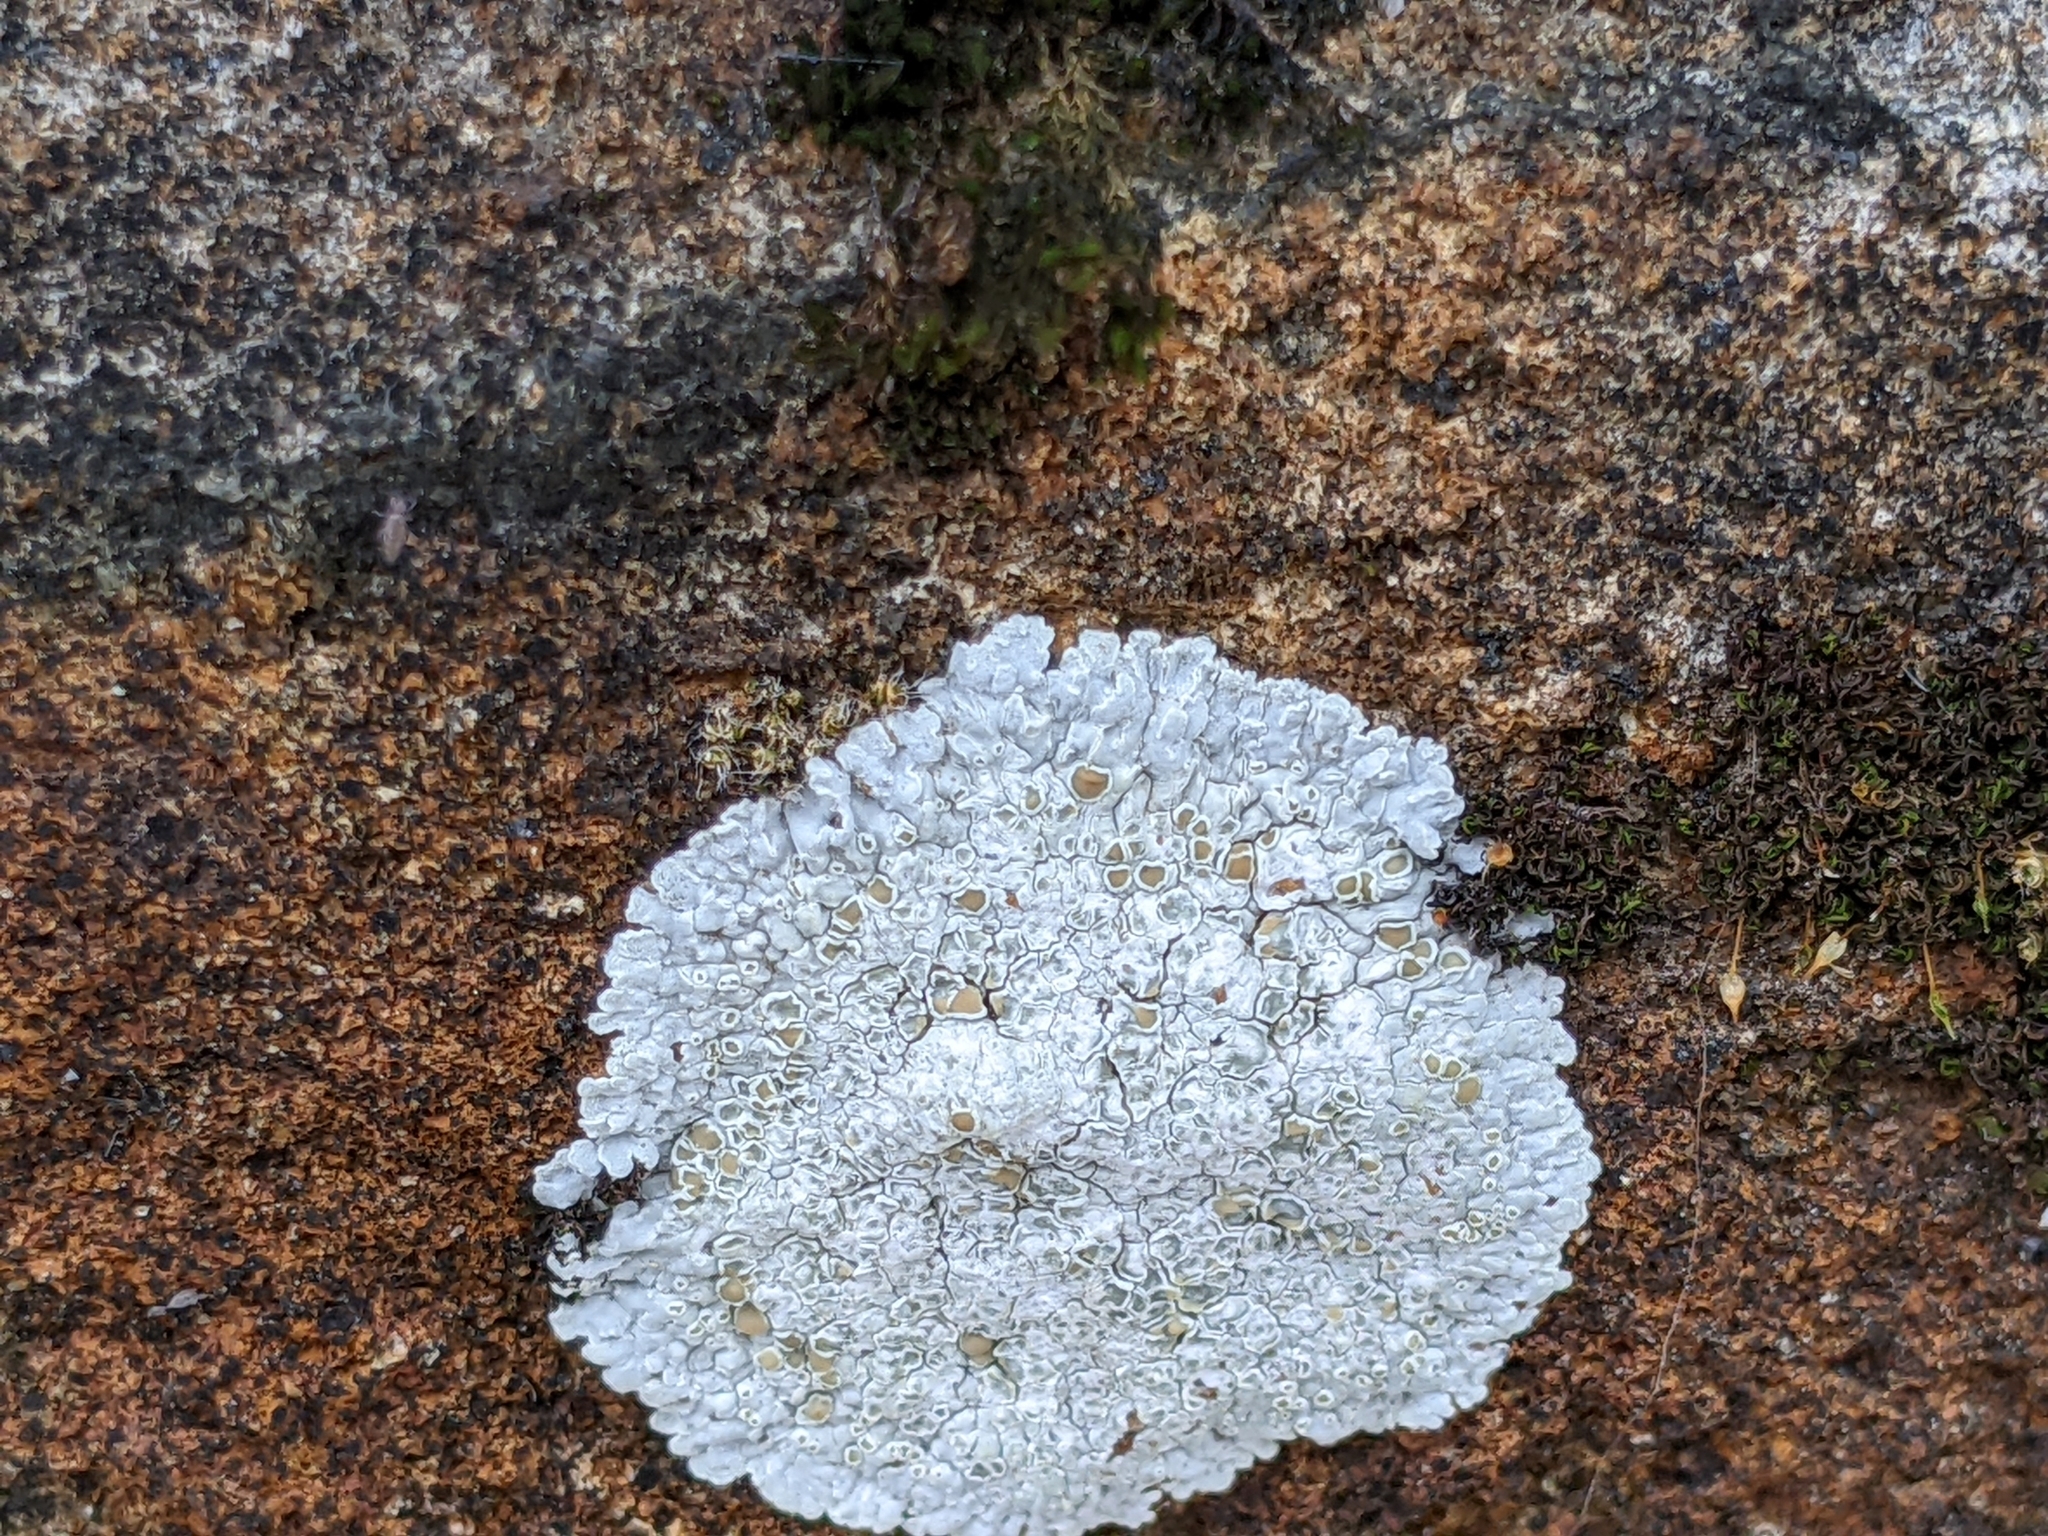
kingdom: Fungi
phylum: Ascomycota
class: Lecanoromycetes
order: Lecanorales
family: Lecanoraceae
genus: Protoparmeliopsis
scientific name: Protoparmeliopsis muralis
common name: Stonewall rim lichen
